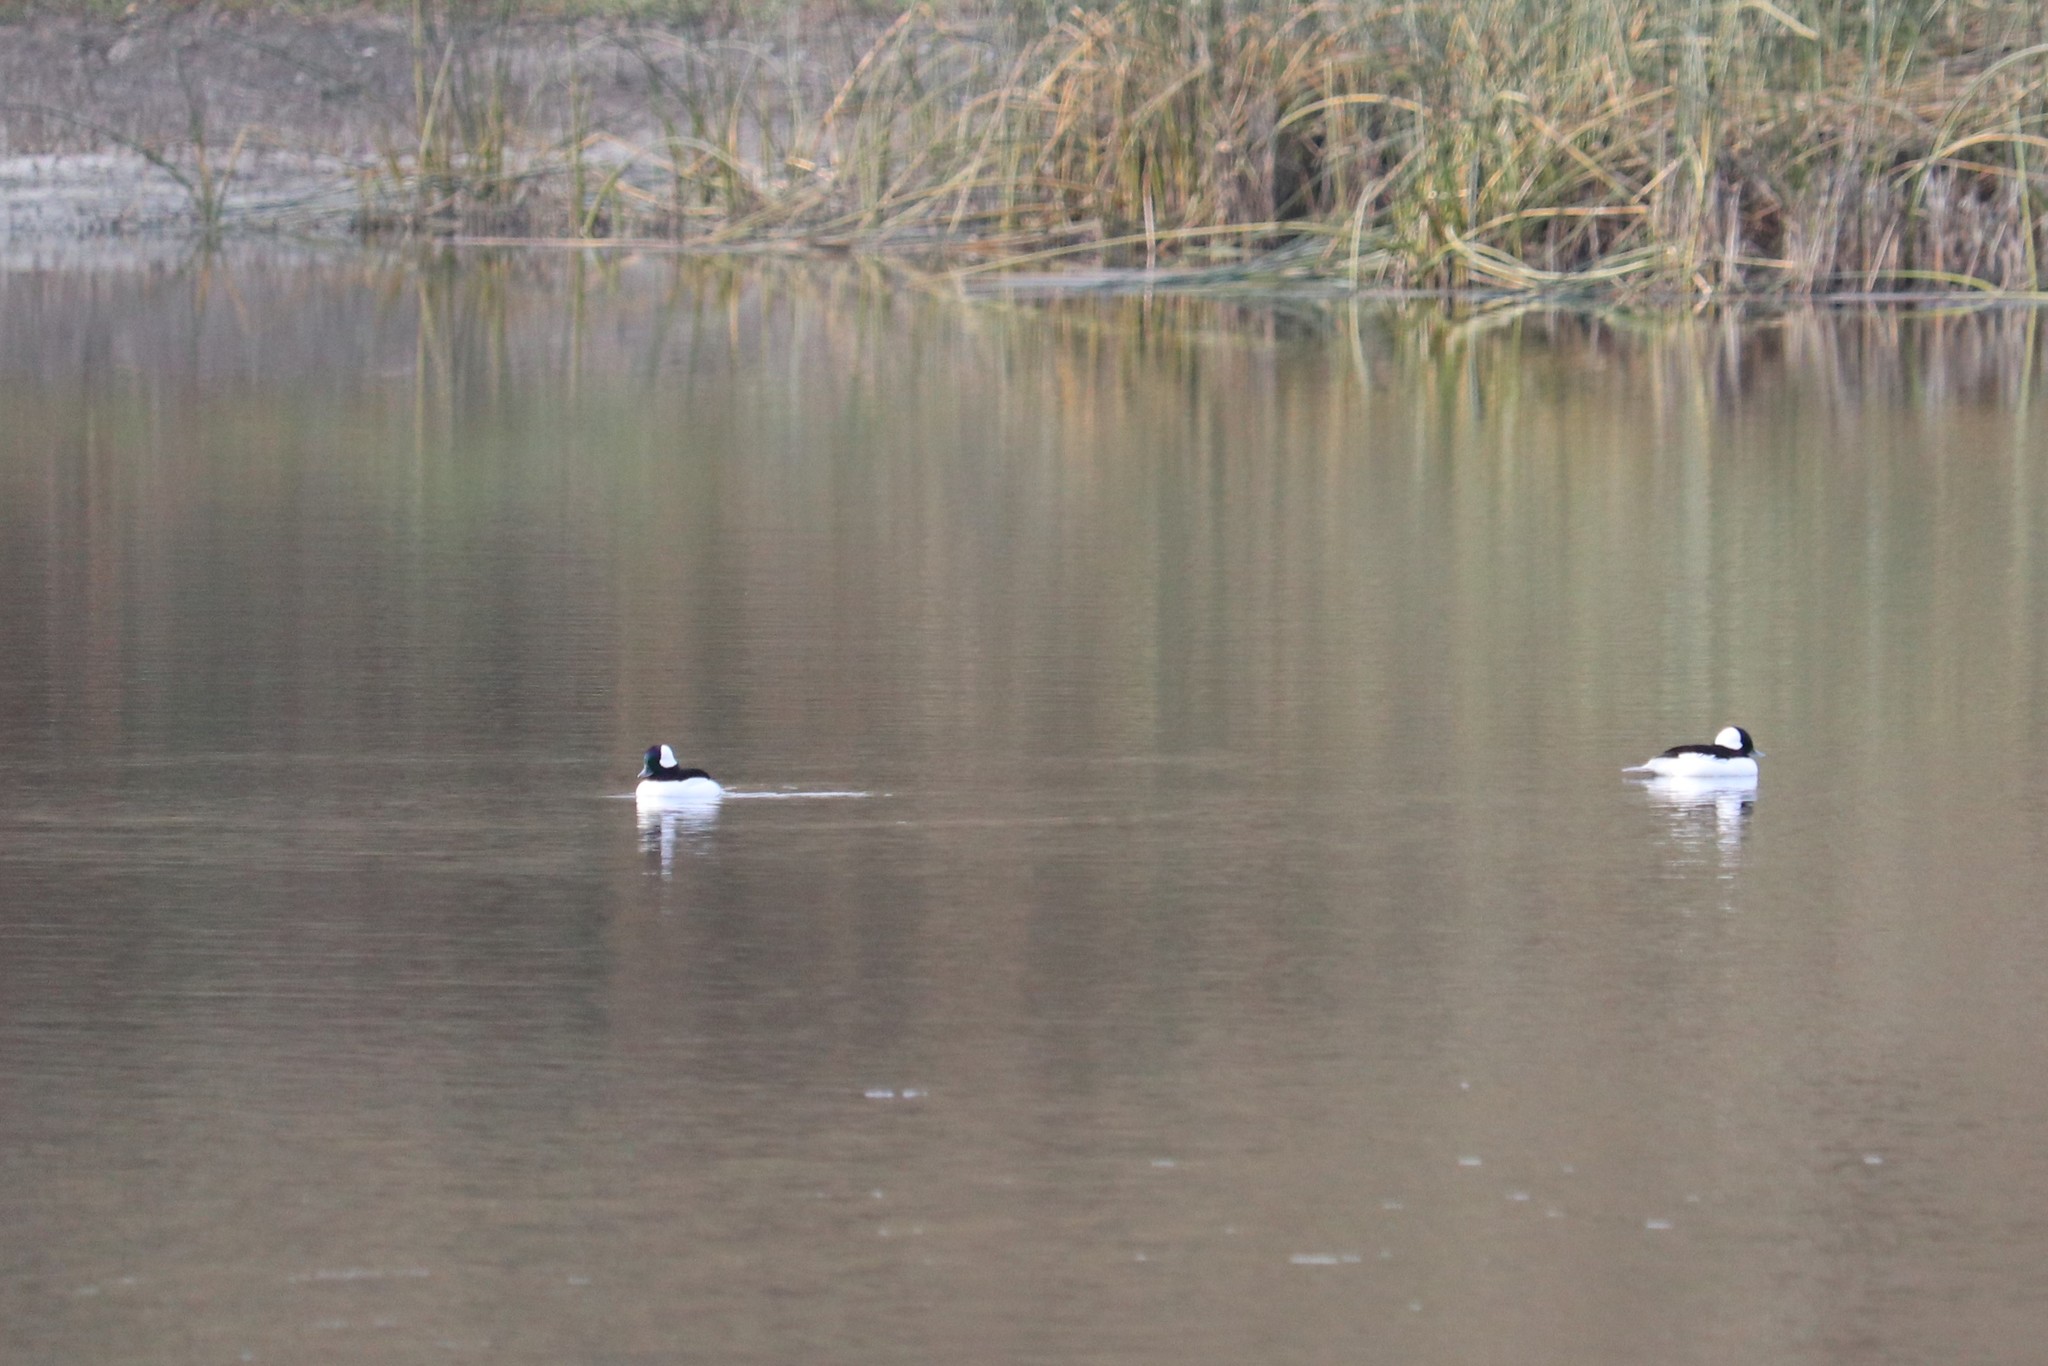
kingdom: Animalia
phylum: Chordata
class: Aves
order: Anseriformes
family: Anatidae
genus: Bucephala
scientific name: Bucephala albeola
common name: Bufflehead
